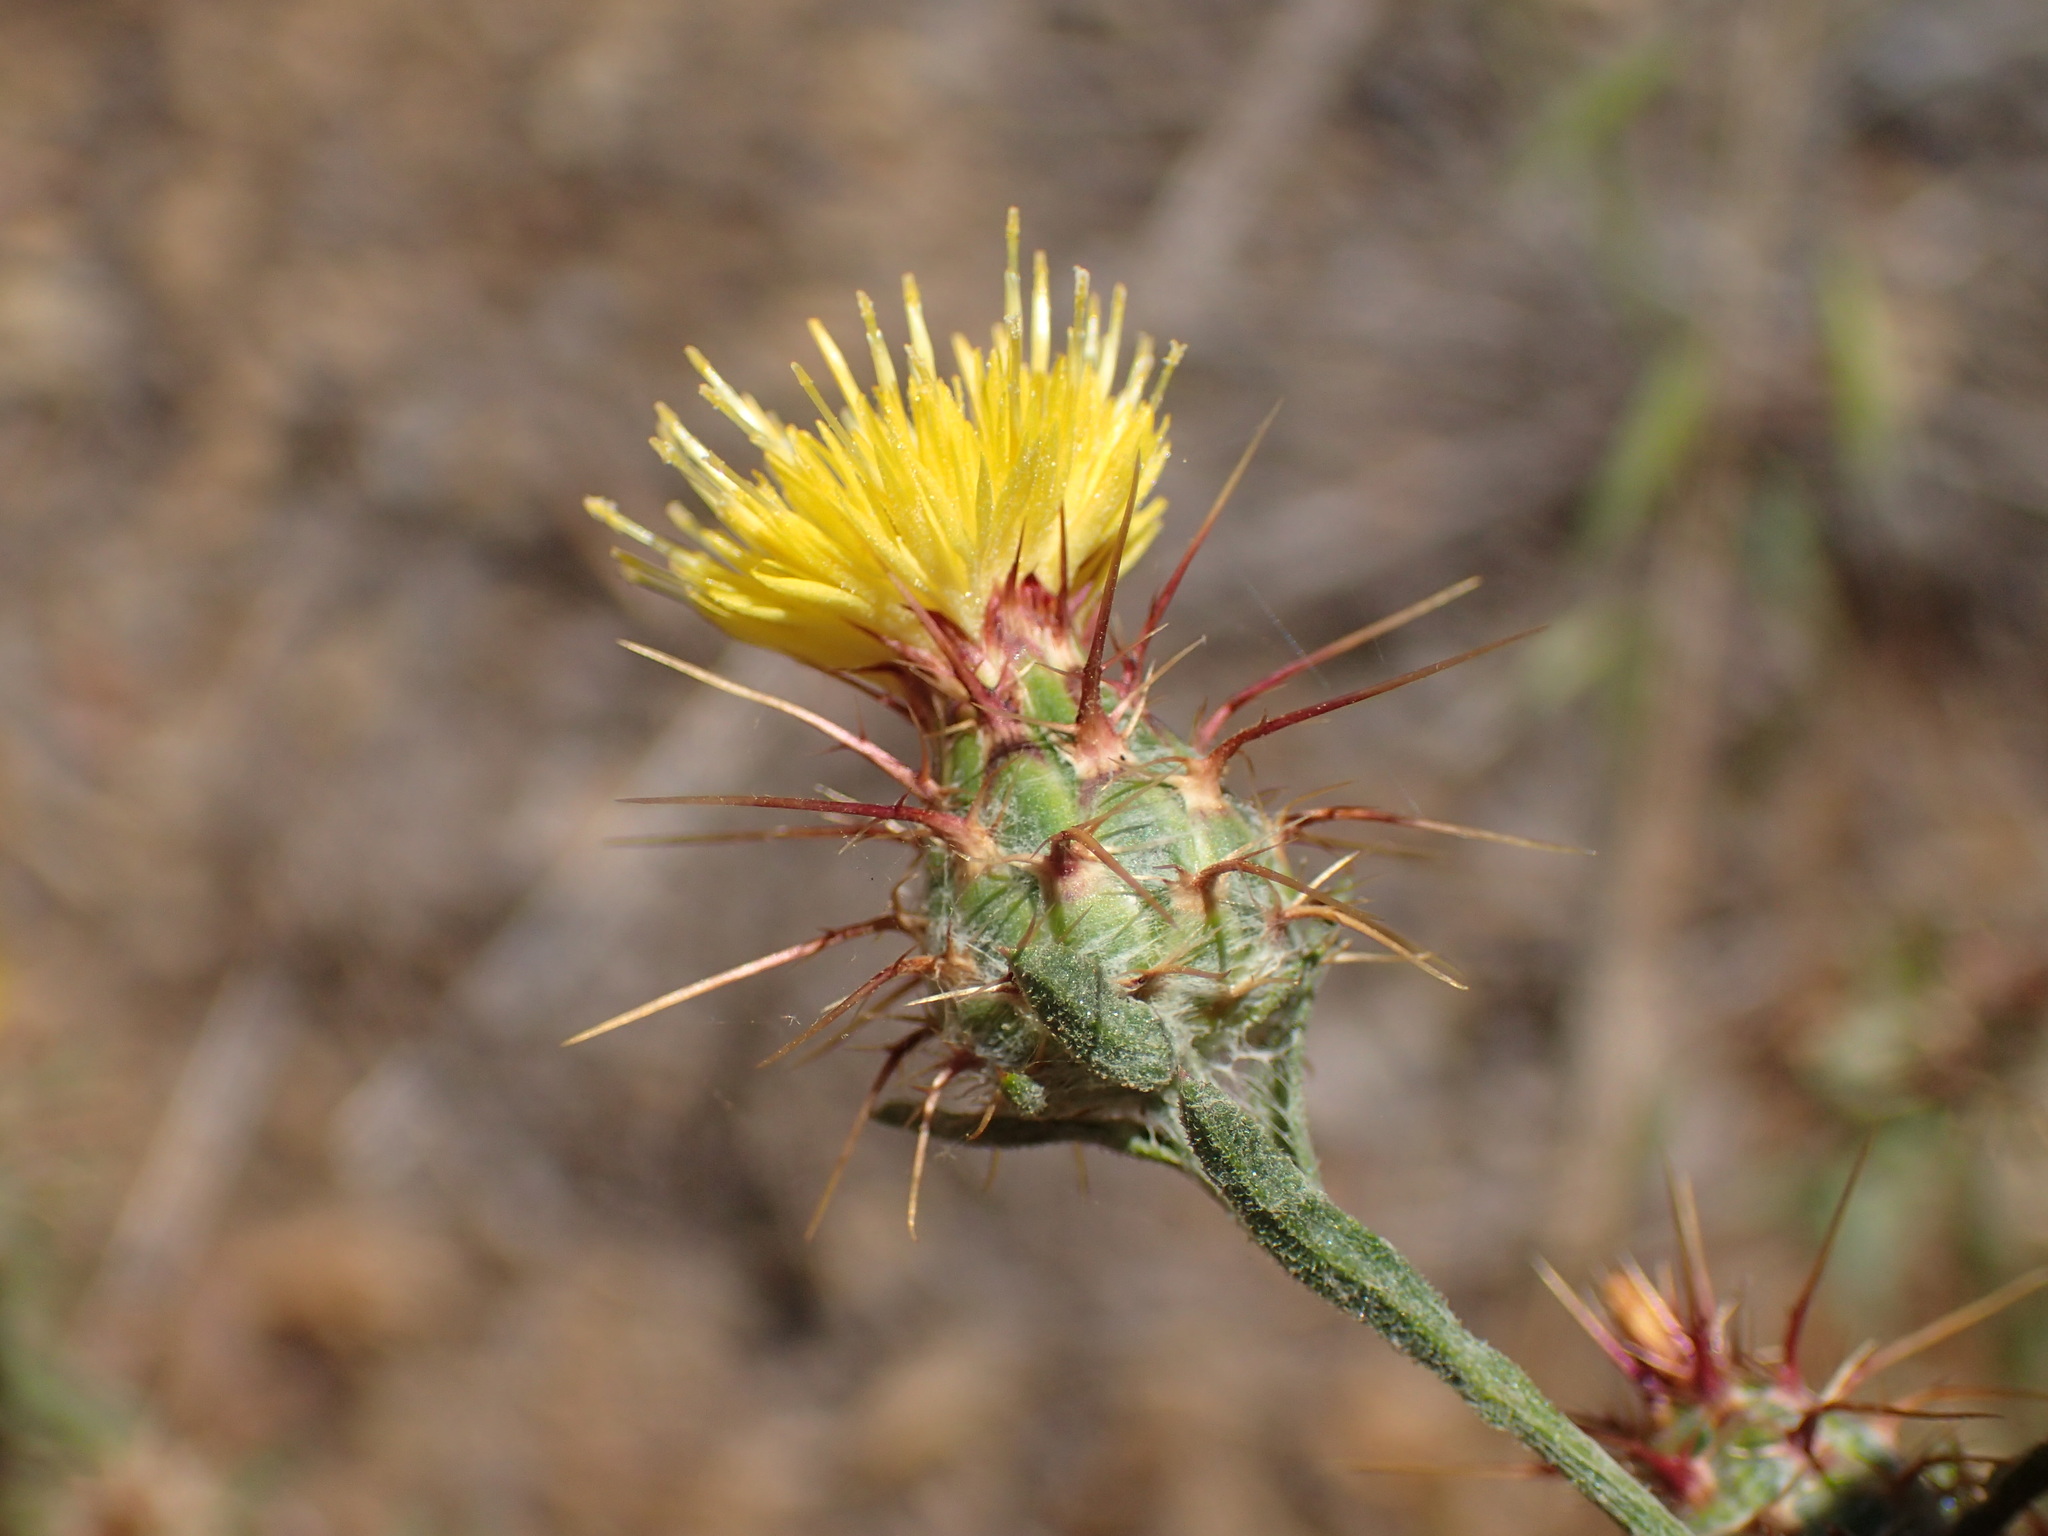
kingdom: Plantae
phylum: Tracheophyta
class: Magnoliopsida
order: Asterales
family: Asteraceae
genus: Centaurea
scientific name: Centaurea melitensis
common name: Maltese star-thistle
